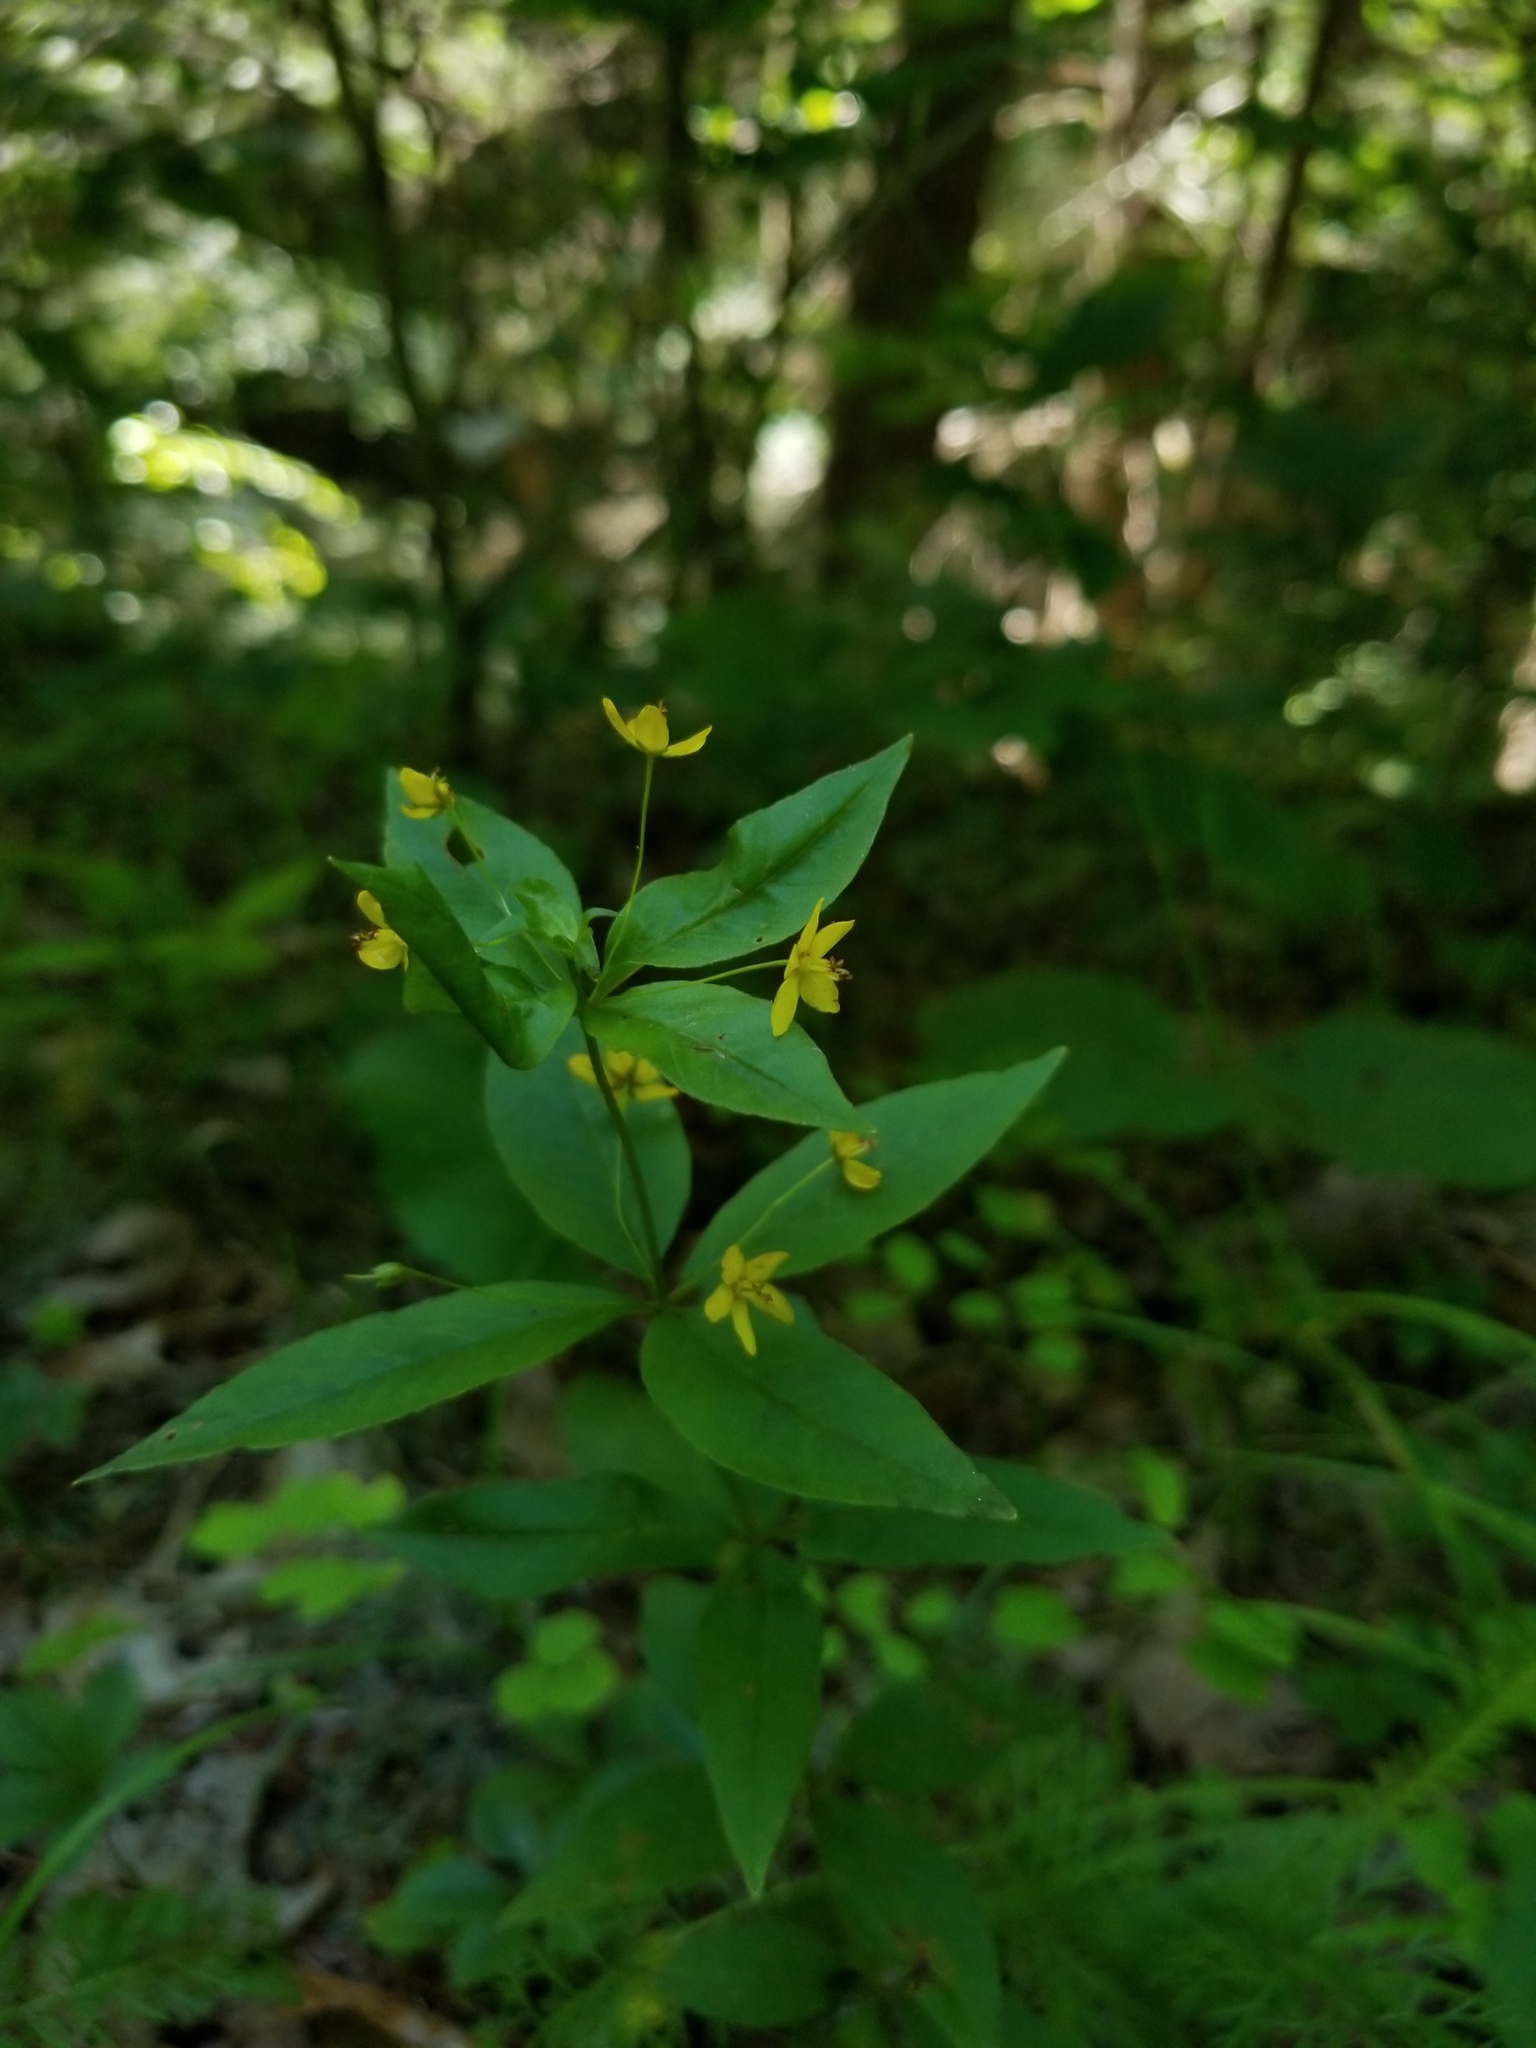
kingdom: Plantae
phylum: Tracheophyta
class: Magnoliopsida
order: Ericales
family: Primulaceae
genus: Lysimachia
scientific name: Lysimachia quadrifolia
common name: Whorled loosestrife
